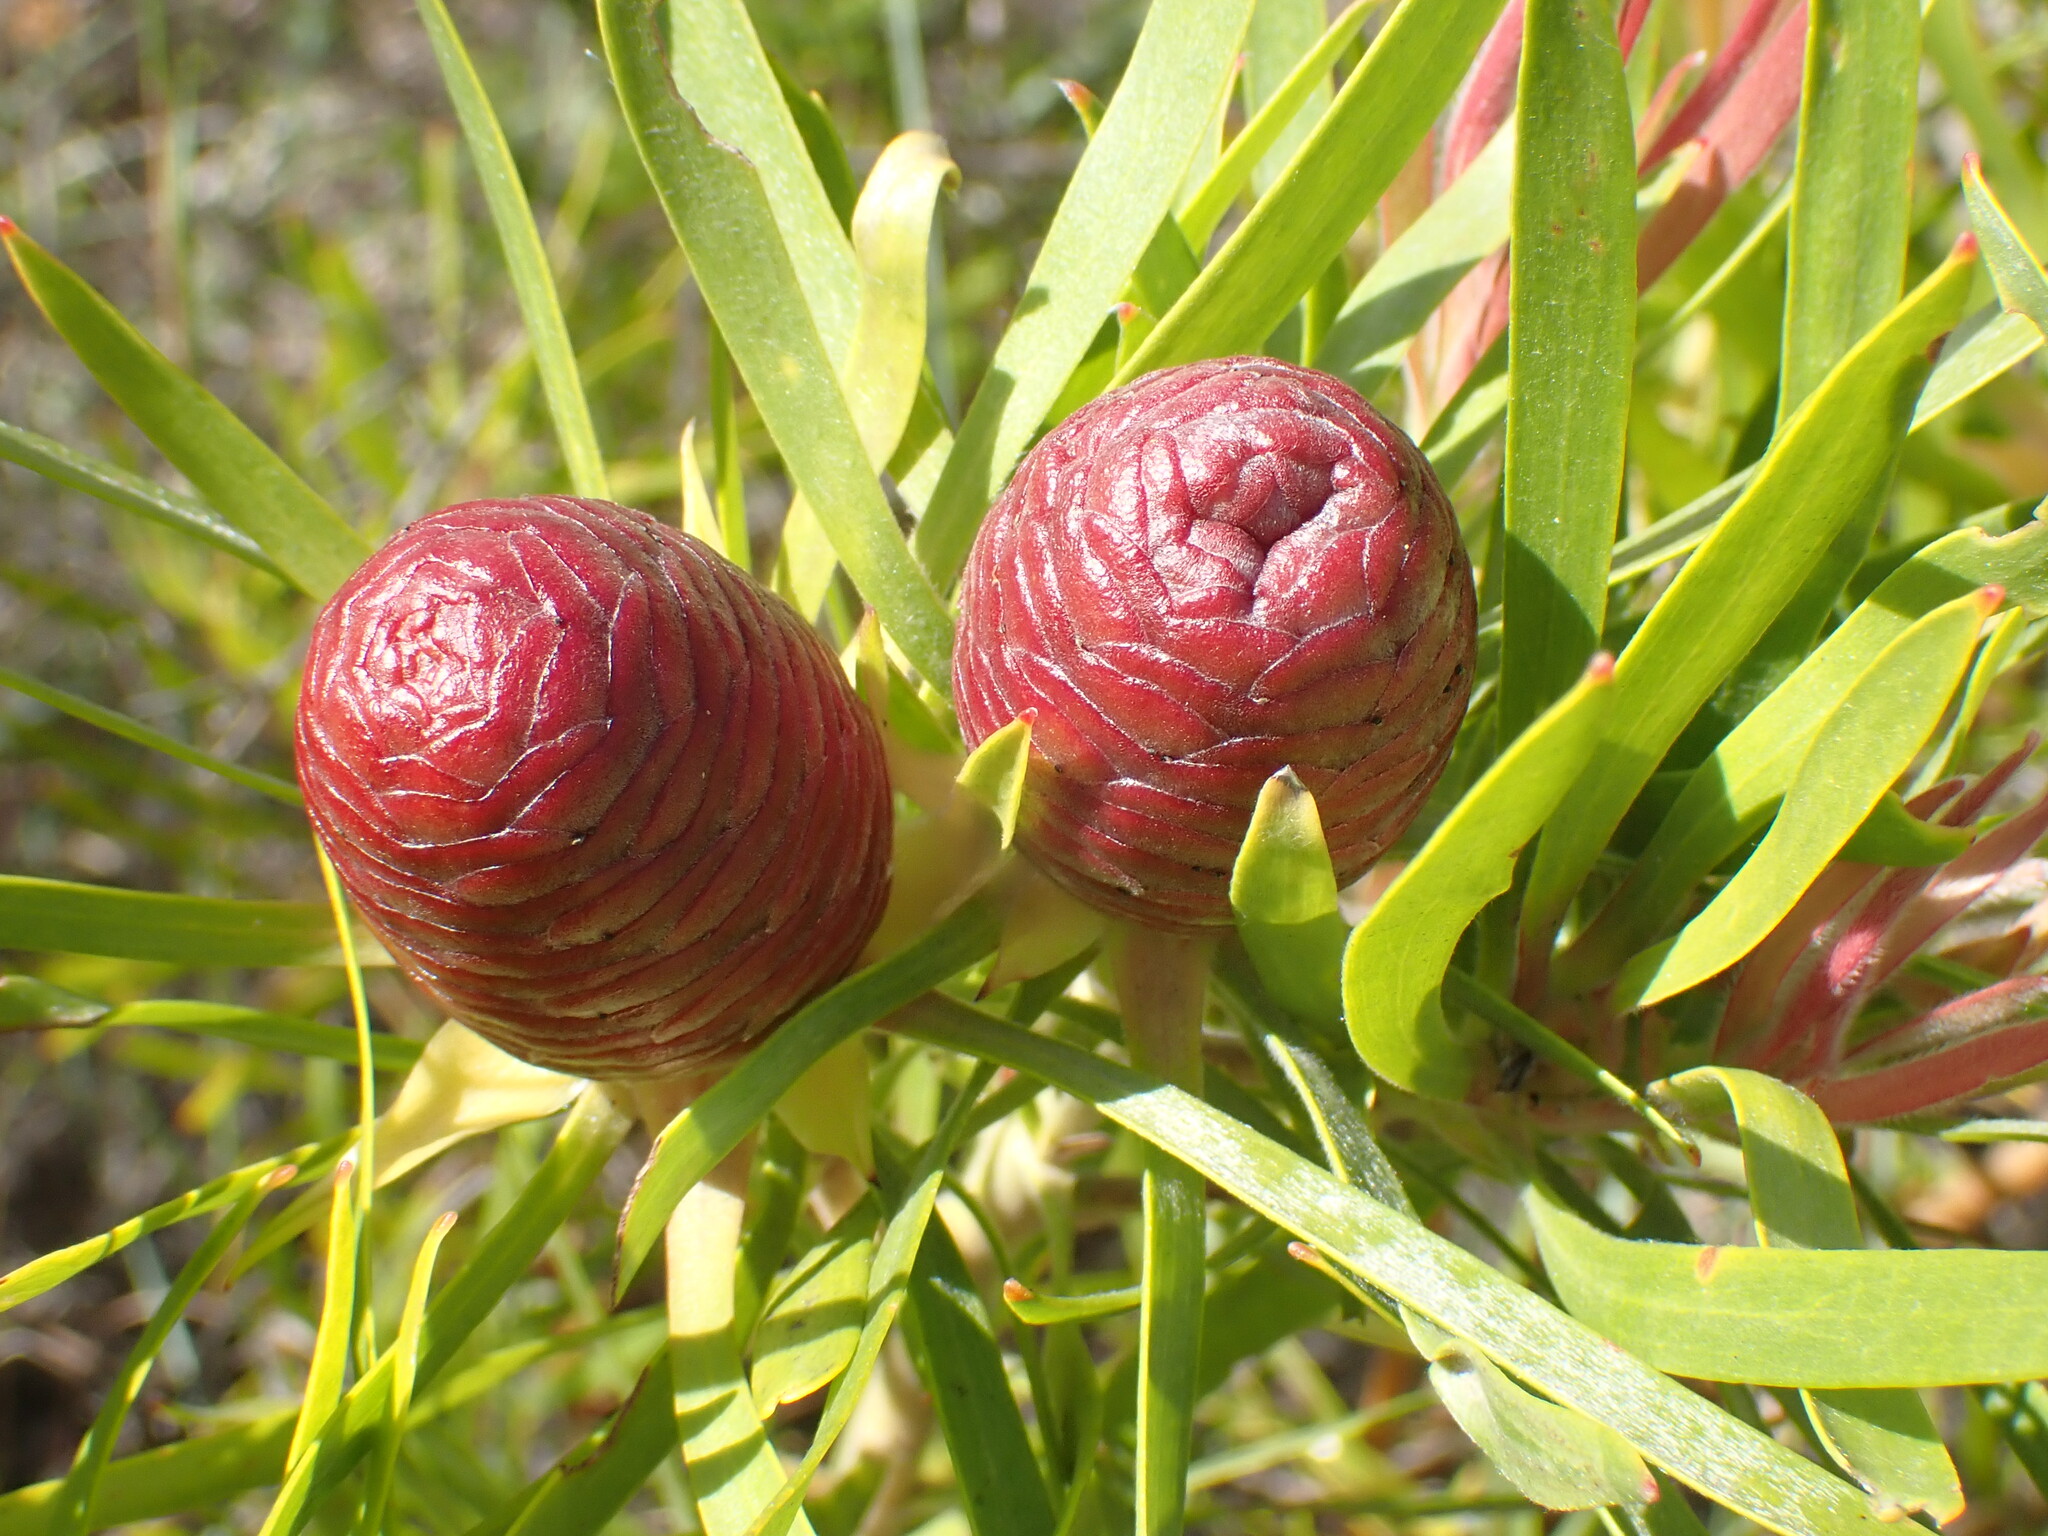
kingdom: Plantae
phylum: Tracheophyta
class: Magnoliopsida
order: Proteales
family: Proteaceae
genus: Leucadendron
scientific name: Leucadendron eucalyptifolium
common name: Gum-leaved conebush
